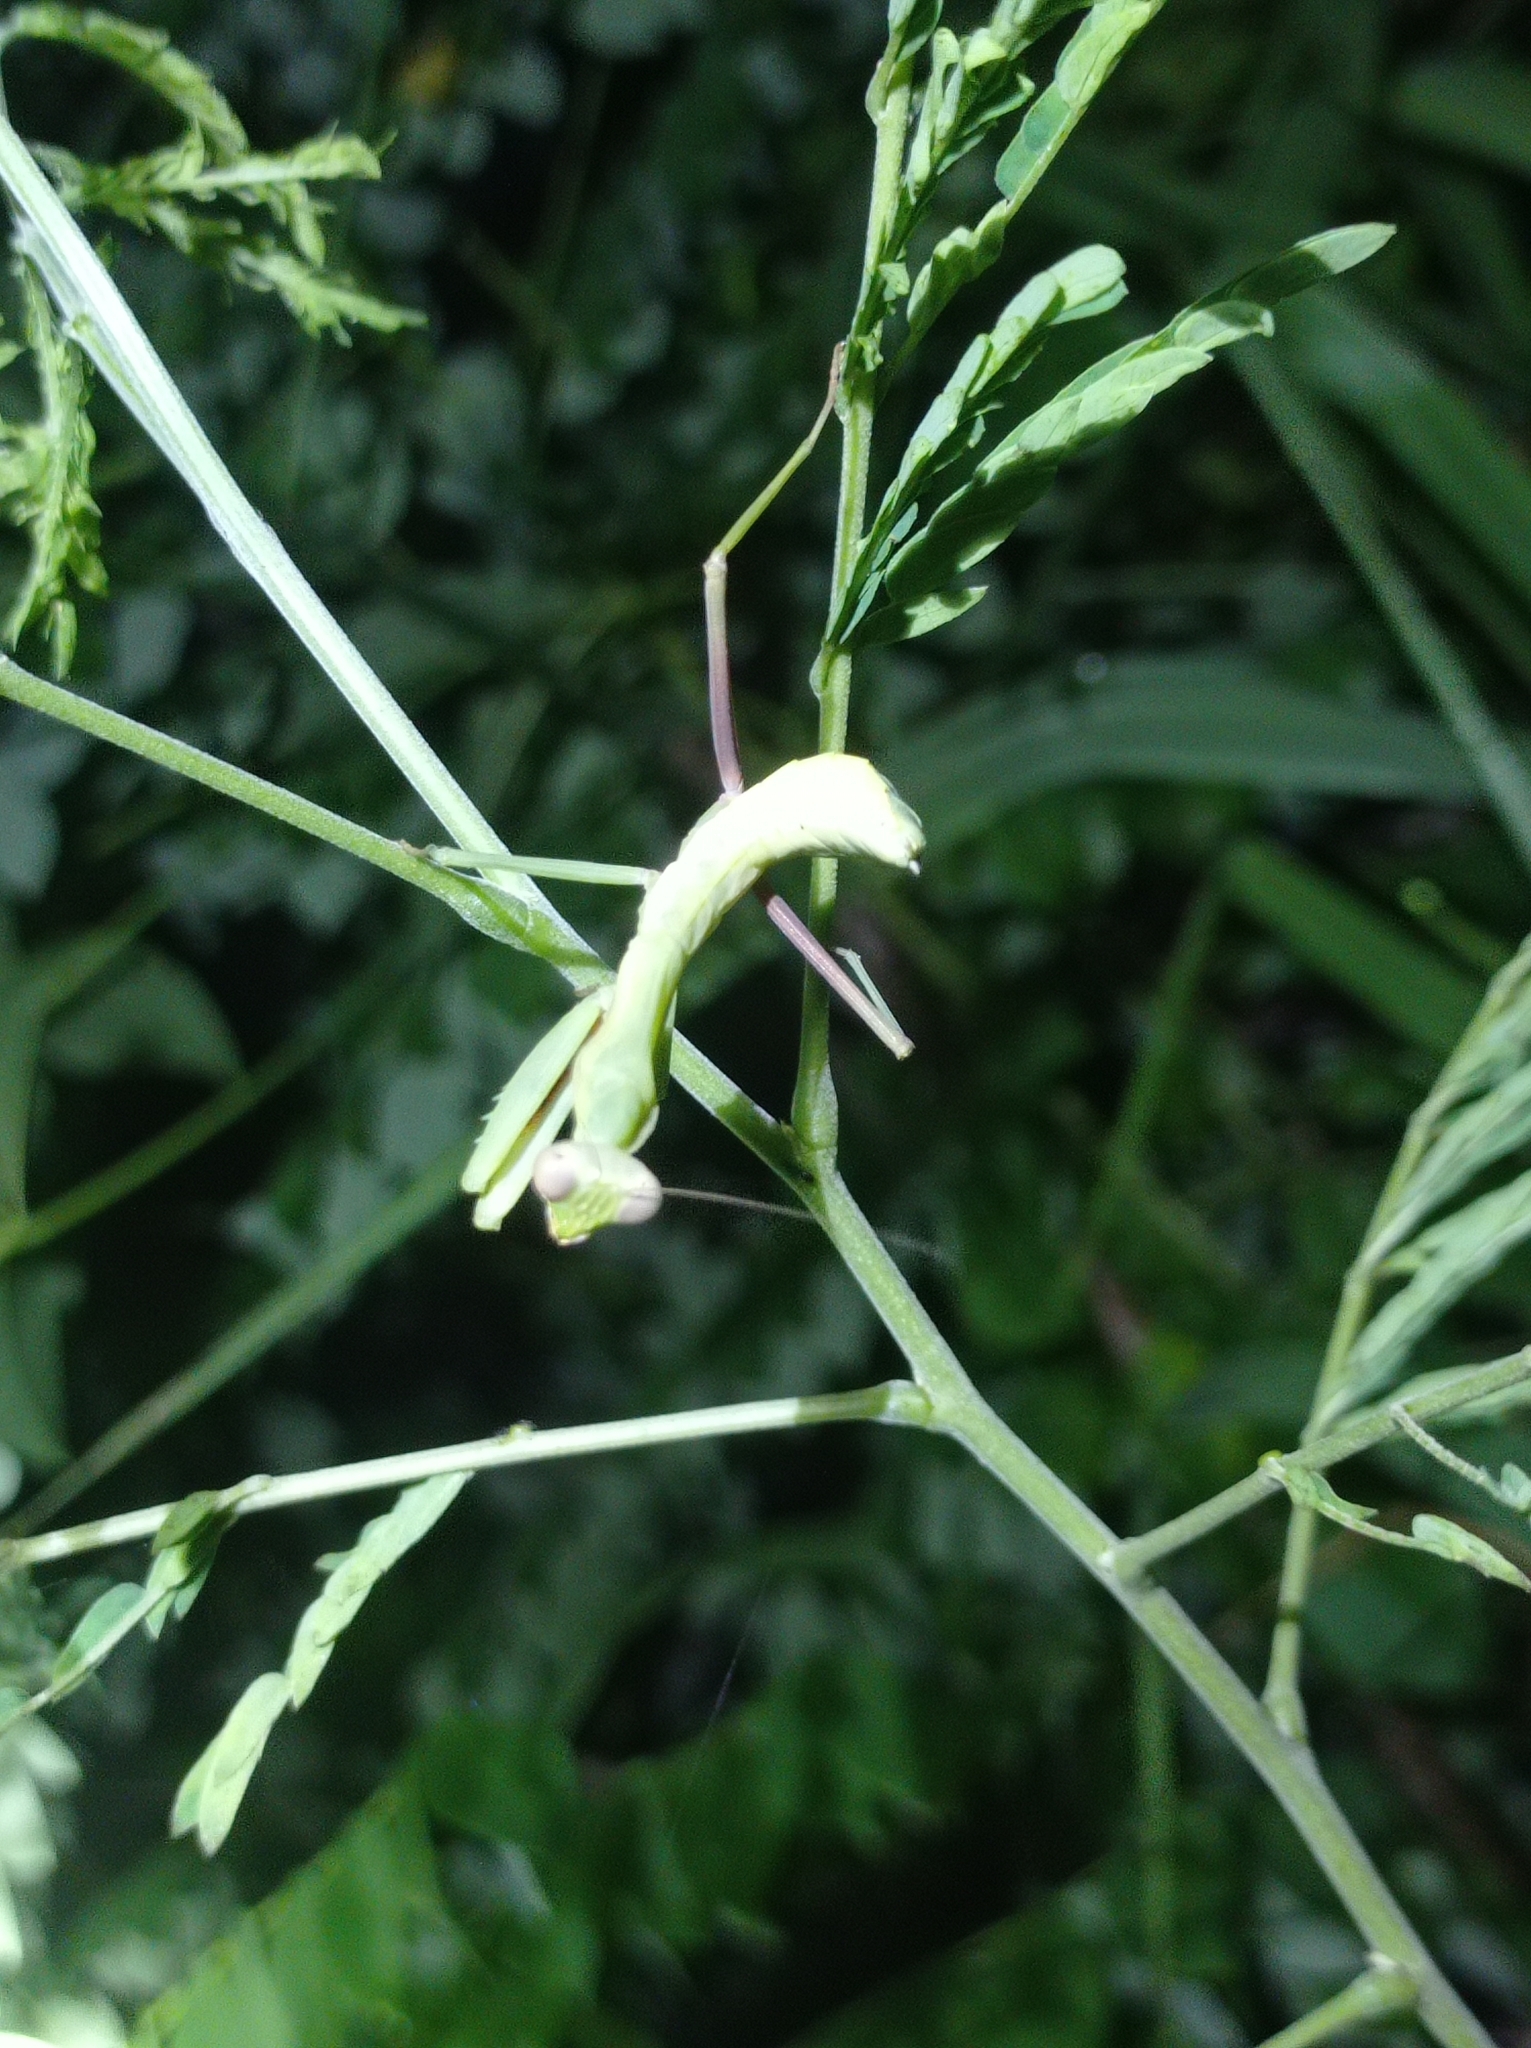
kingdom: Animalia
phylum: Arthropoda
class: Insecta
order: Mantodea
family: Mantidae
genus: Hierodula
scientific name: Hierodula timorensis
